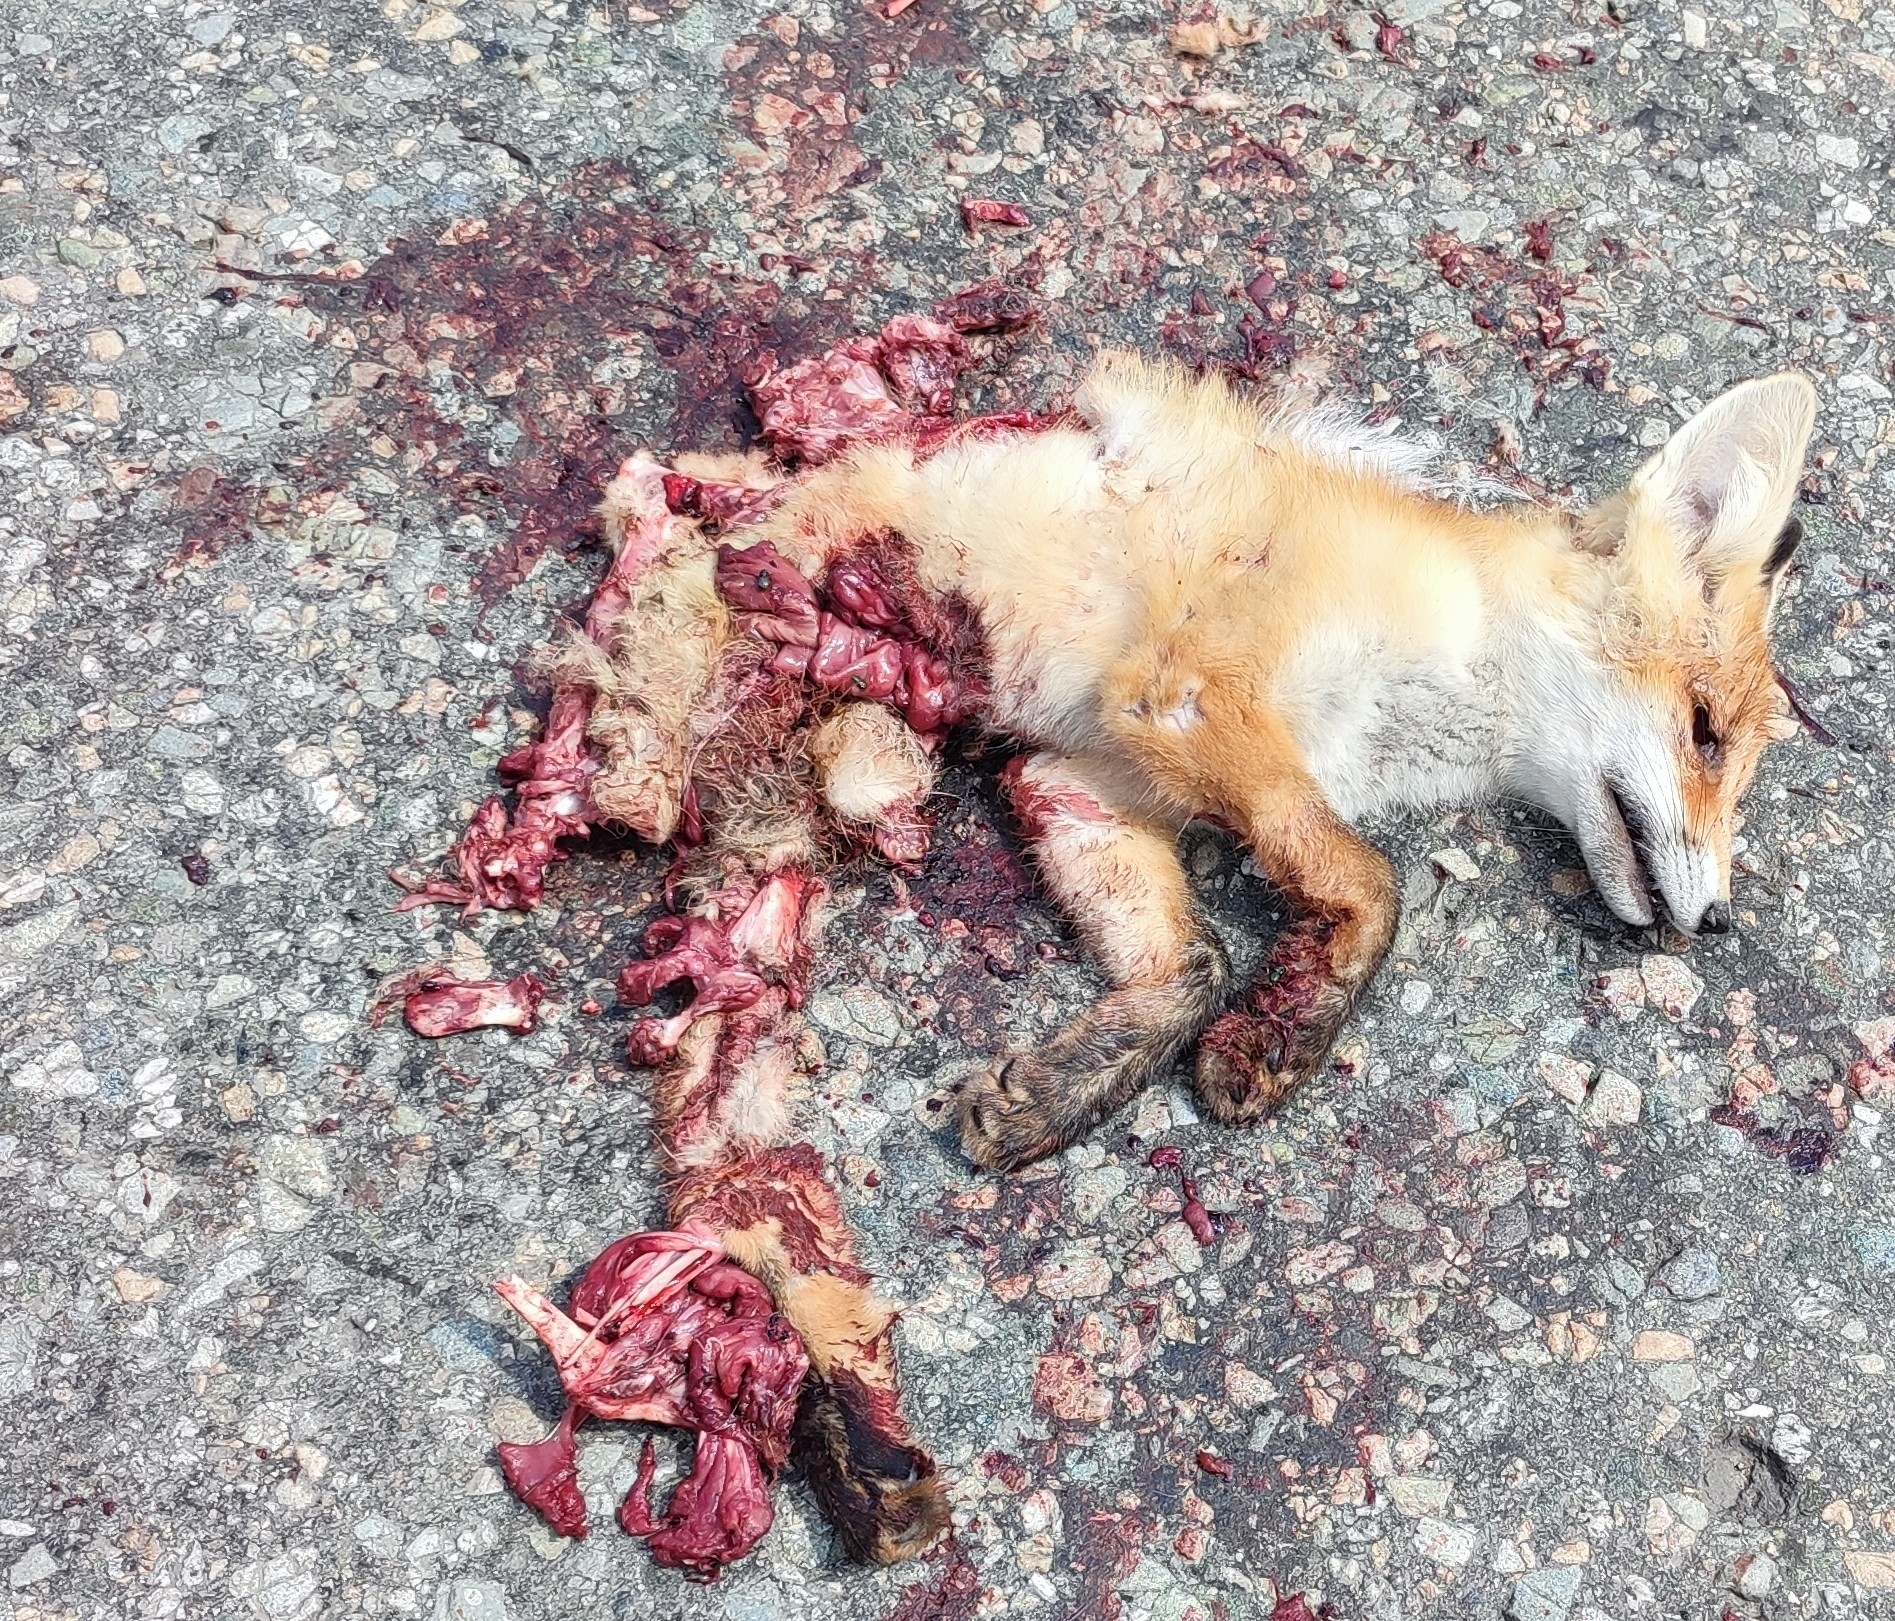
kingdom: Animalia
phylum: Chordata
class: Mammalia
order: Carnivora
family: Canidae
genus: Vulpes
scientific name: Vulpes vulpes
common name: Red fox
